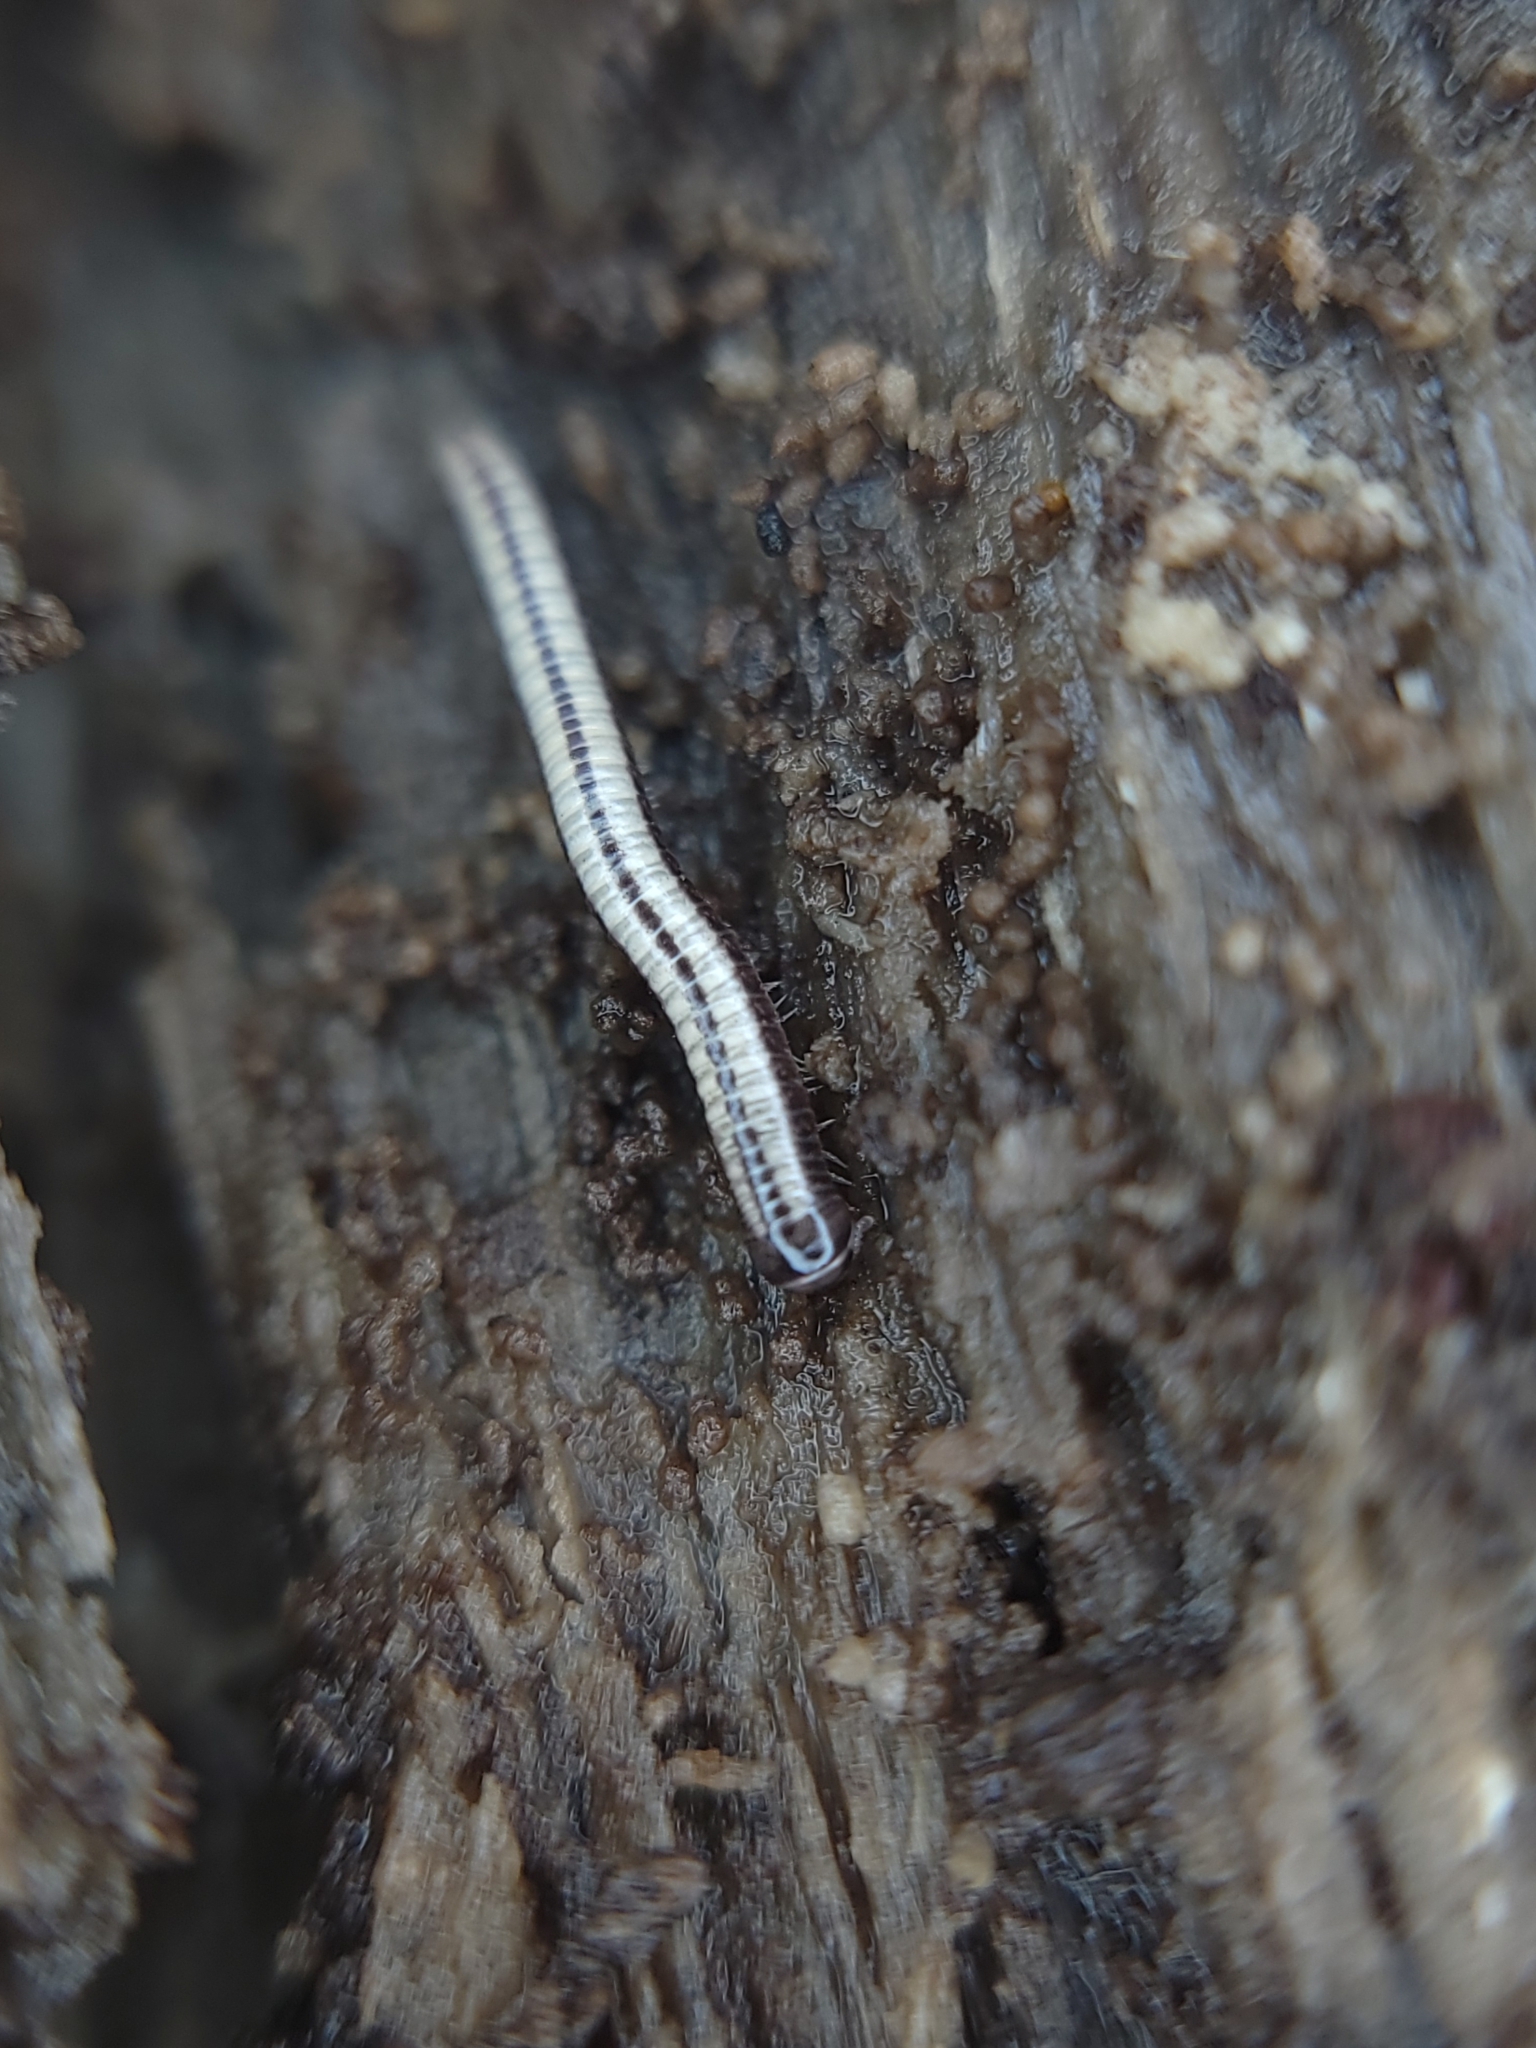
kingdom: Animalia
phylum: Arthropoda
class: Diplopoda
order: Spirobolida
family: Spirobolellidae
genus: Spirobolellus
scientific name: Spirobolellus immigrans
